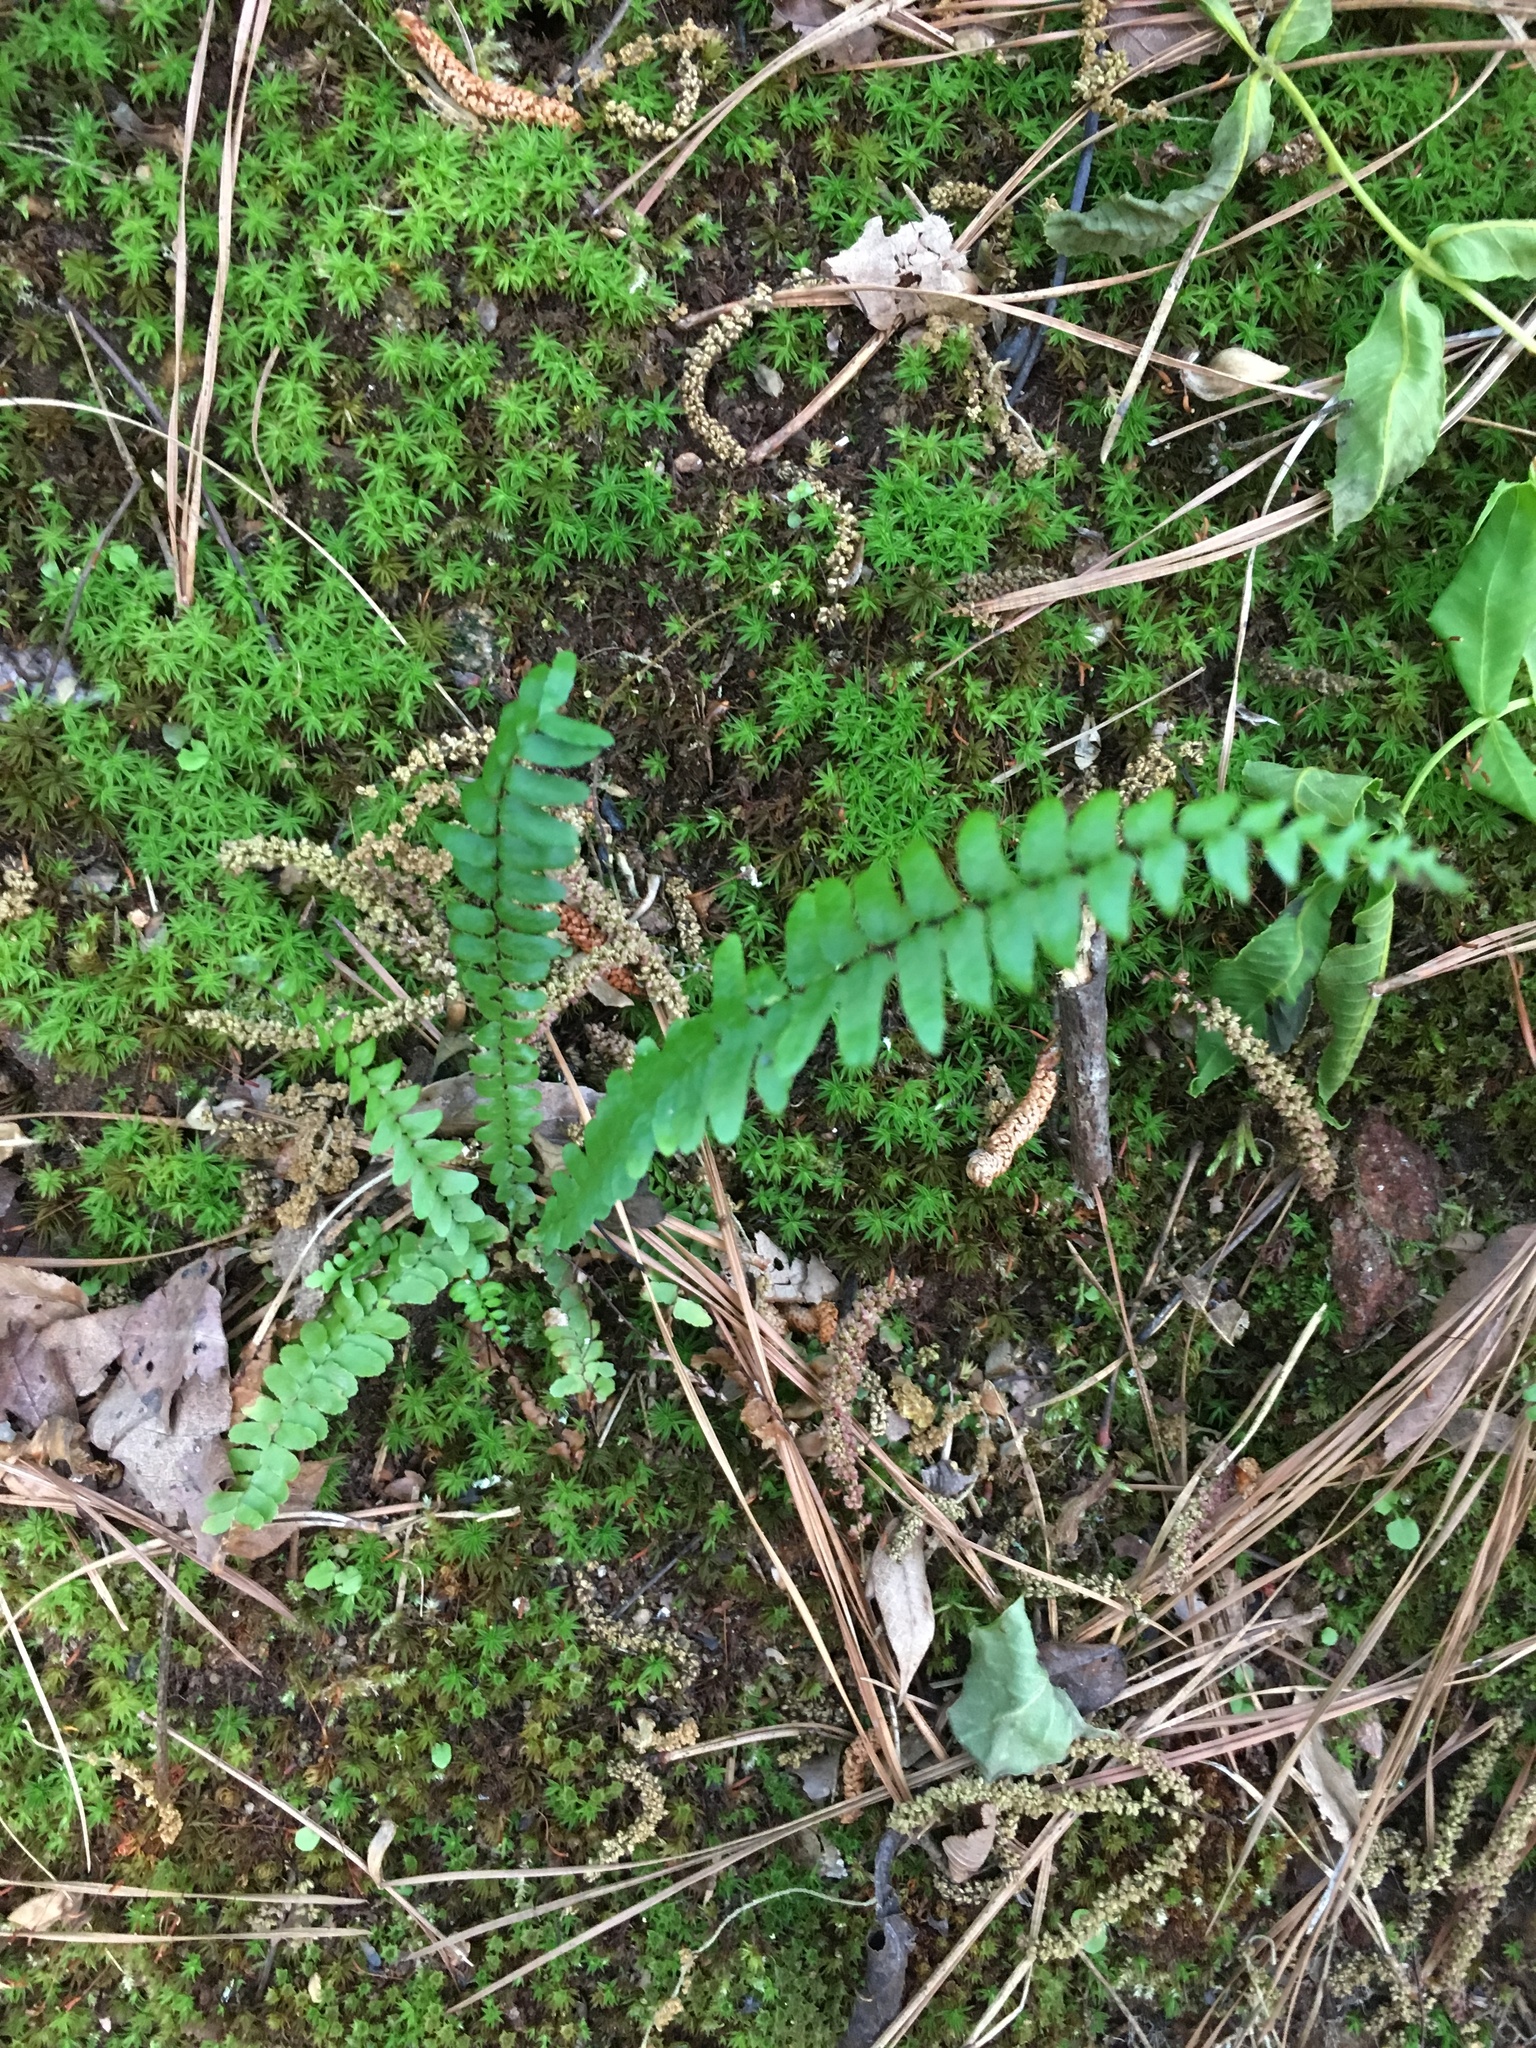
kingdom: Plantae
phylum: Tracheophyta
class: Polypodiopsida
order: Polypodiales
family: Aspleniaceae
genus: Asplenium
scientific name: Asplenium platyneuron
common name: Ebony spleenwort
